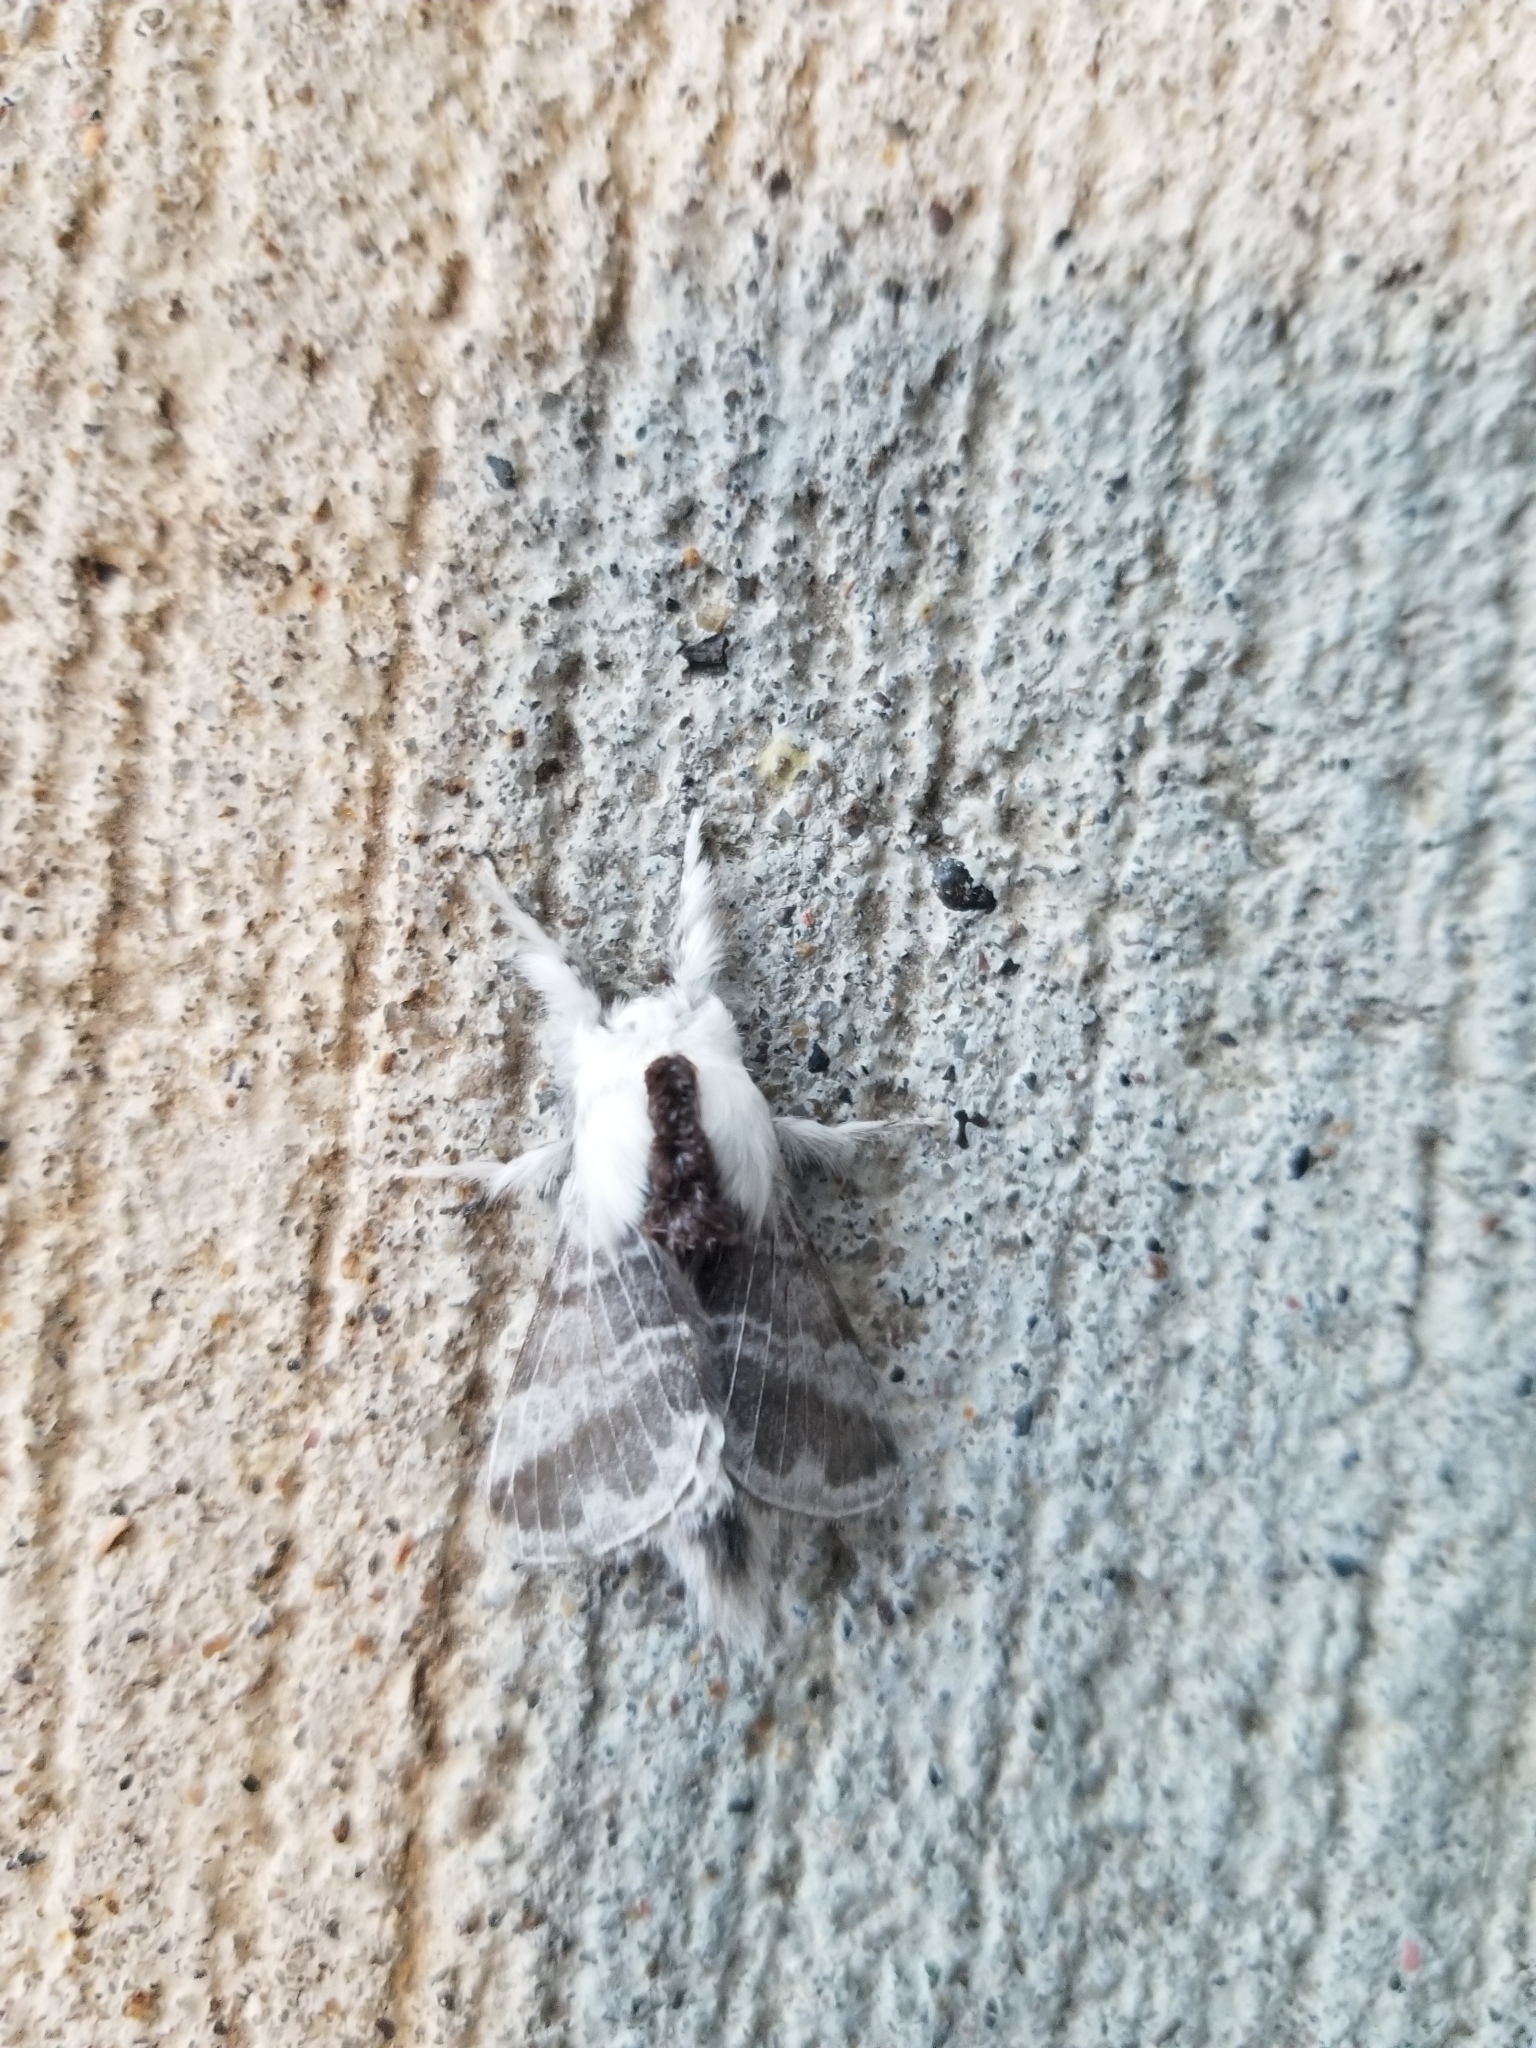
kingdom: Animalia
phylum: Arthropoda
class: Insecta
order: Lepidoptera
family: Lasiocampidae
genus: Tolype
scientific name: Tolype velleda
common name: Large tolype moth
